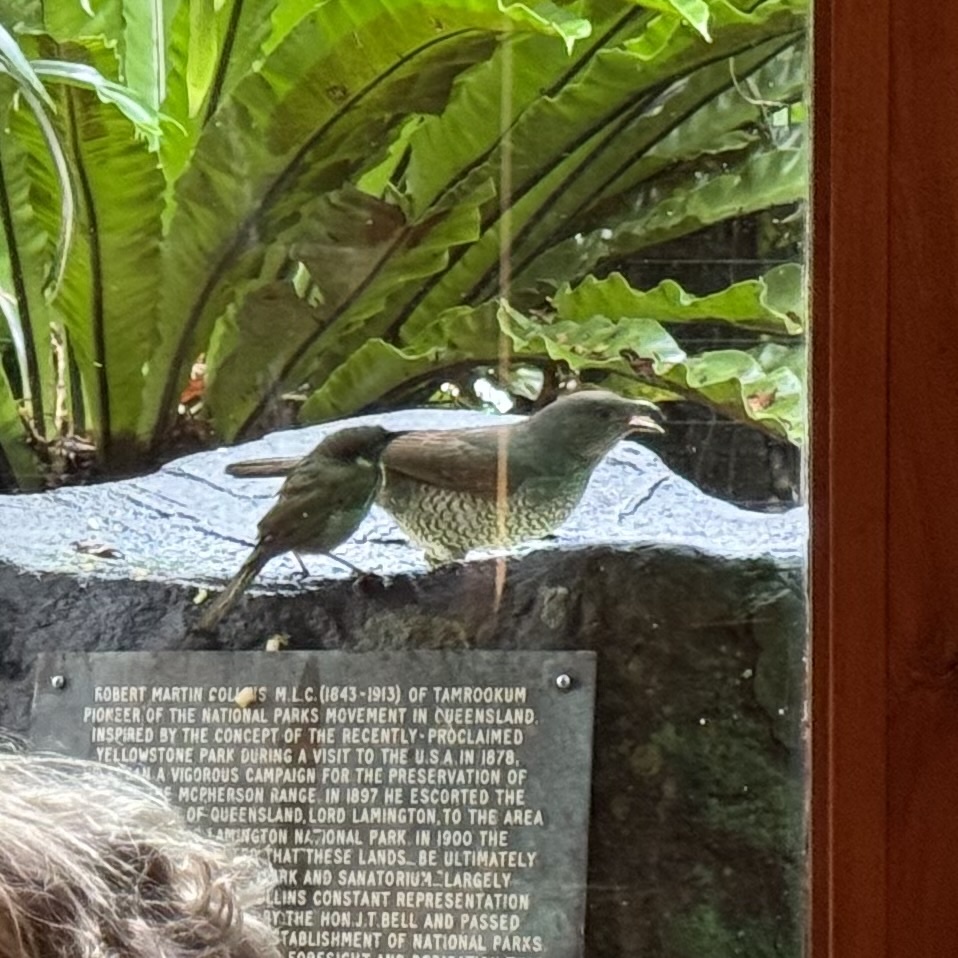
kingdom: Animalia
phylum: Chordata
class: Aves
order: Passeriformes
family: Ptilonorhynchidae
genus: Ptilonorhynchus
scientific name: Ptilonorhynchus violaceus
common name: Satin bowerbird
